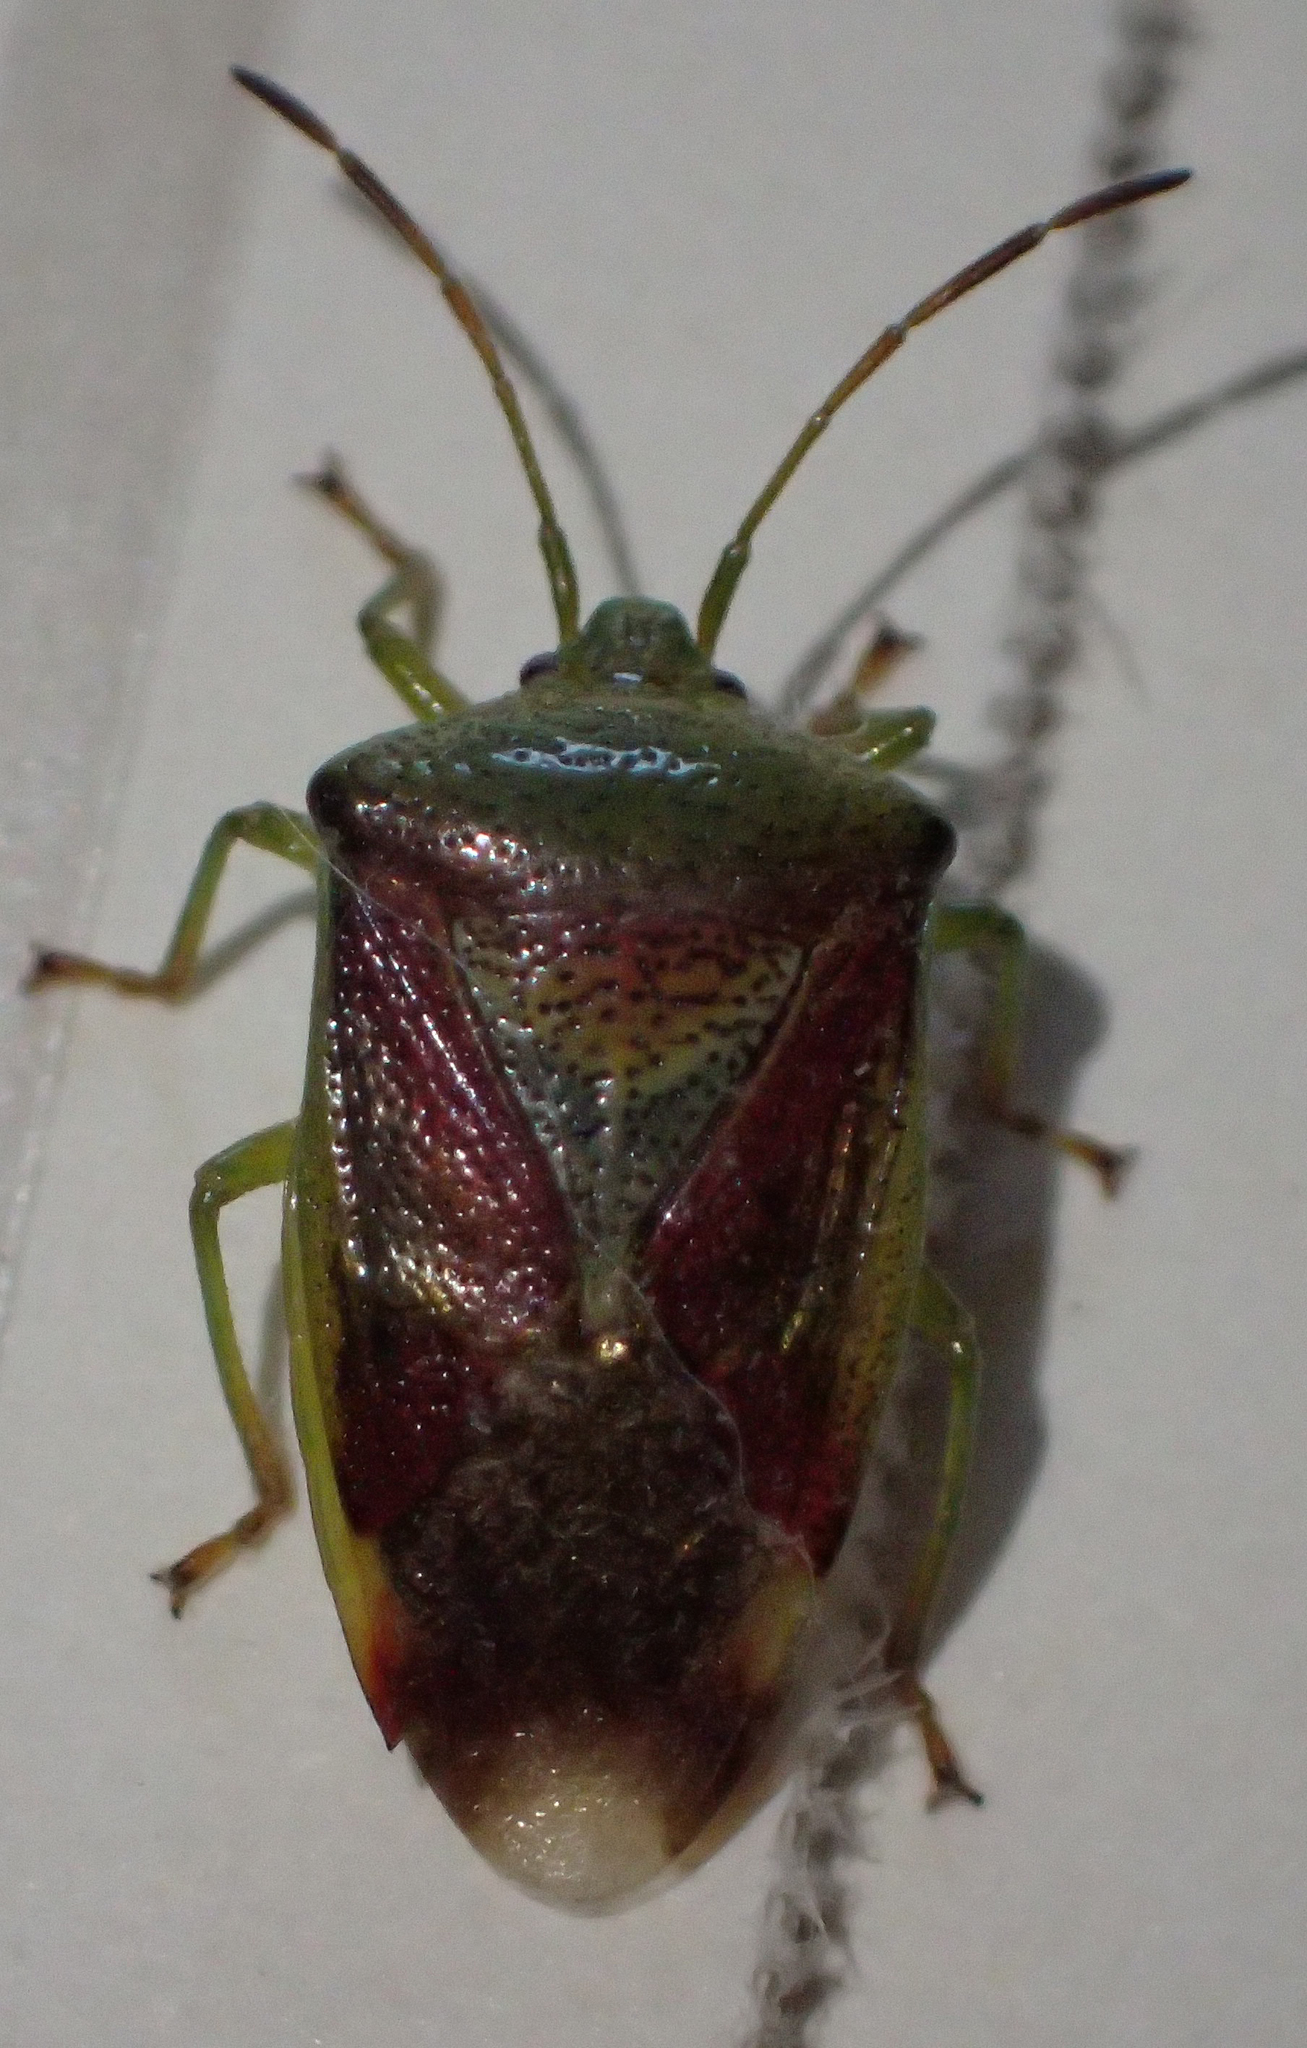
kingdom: Animalia
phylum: Arthropoda
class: Insecta
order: Hemiptera
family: Acanthosomatidae
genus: Elasmostethus
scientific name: Elasmostethus interstinctus
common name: Birch shieldbug
